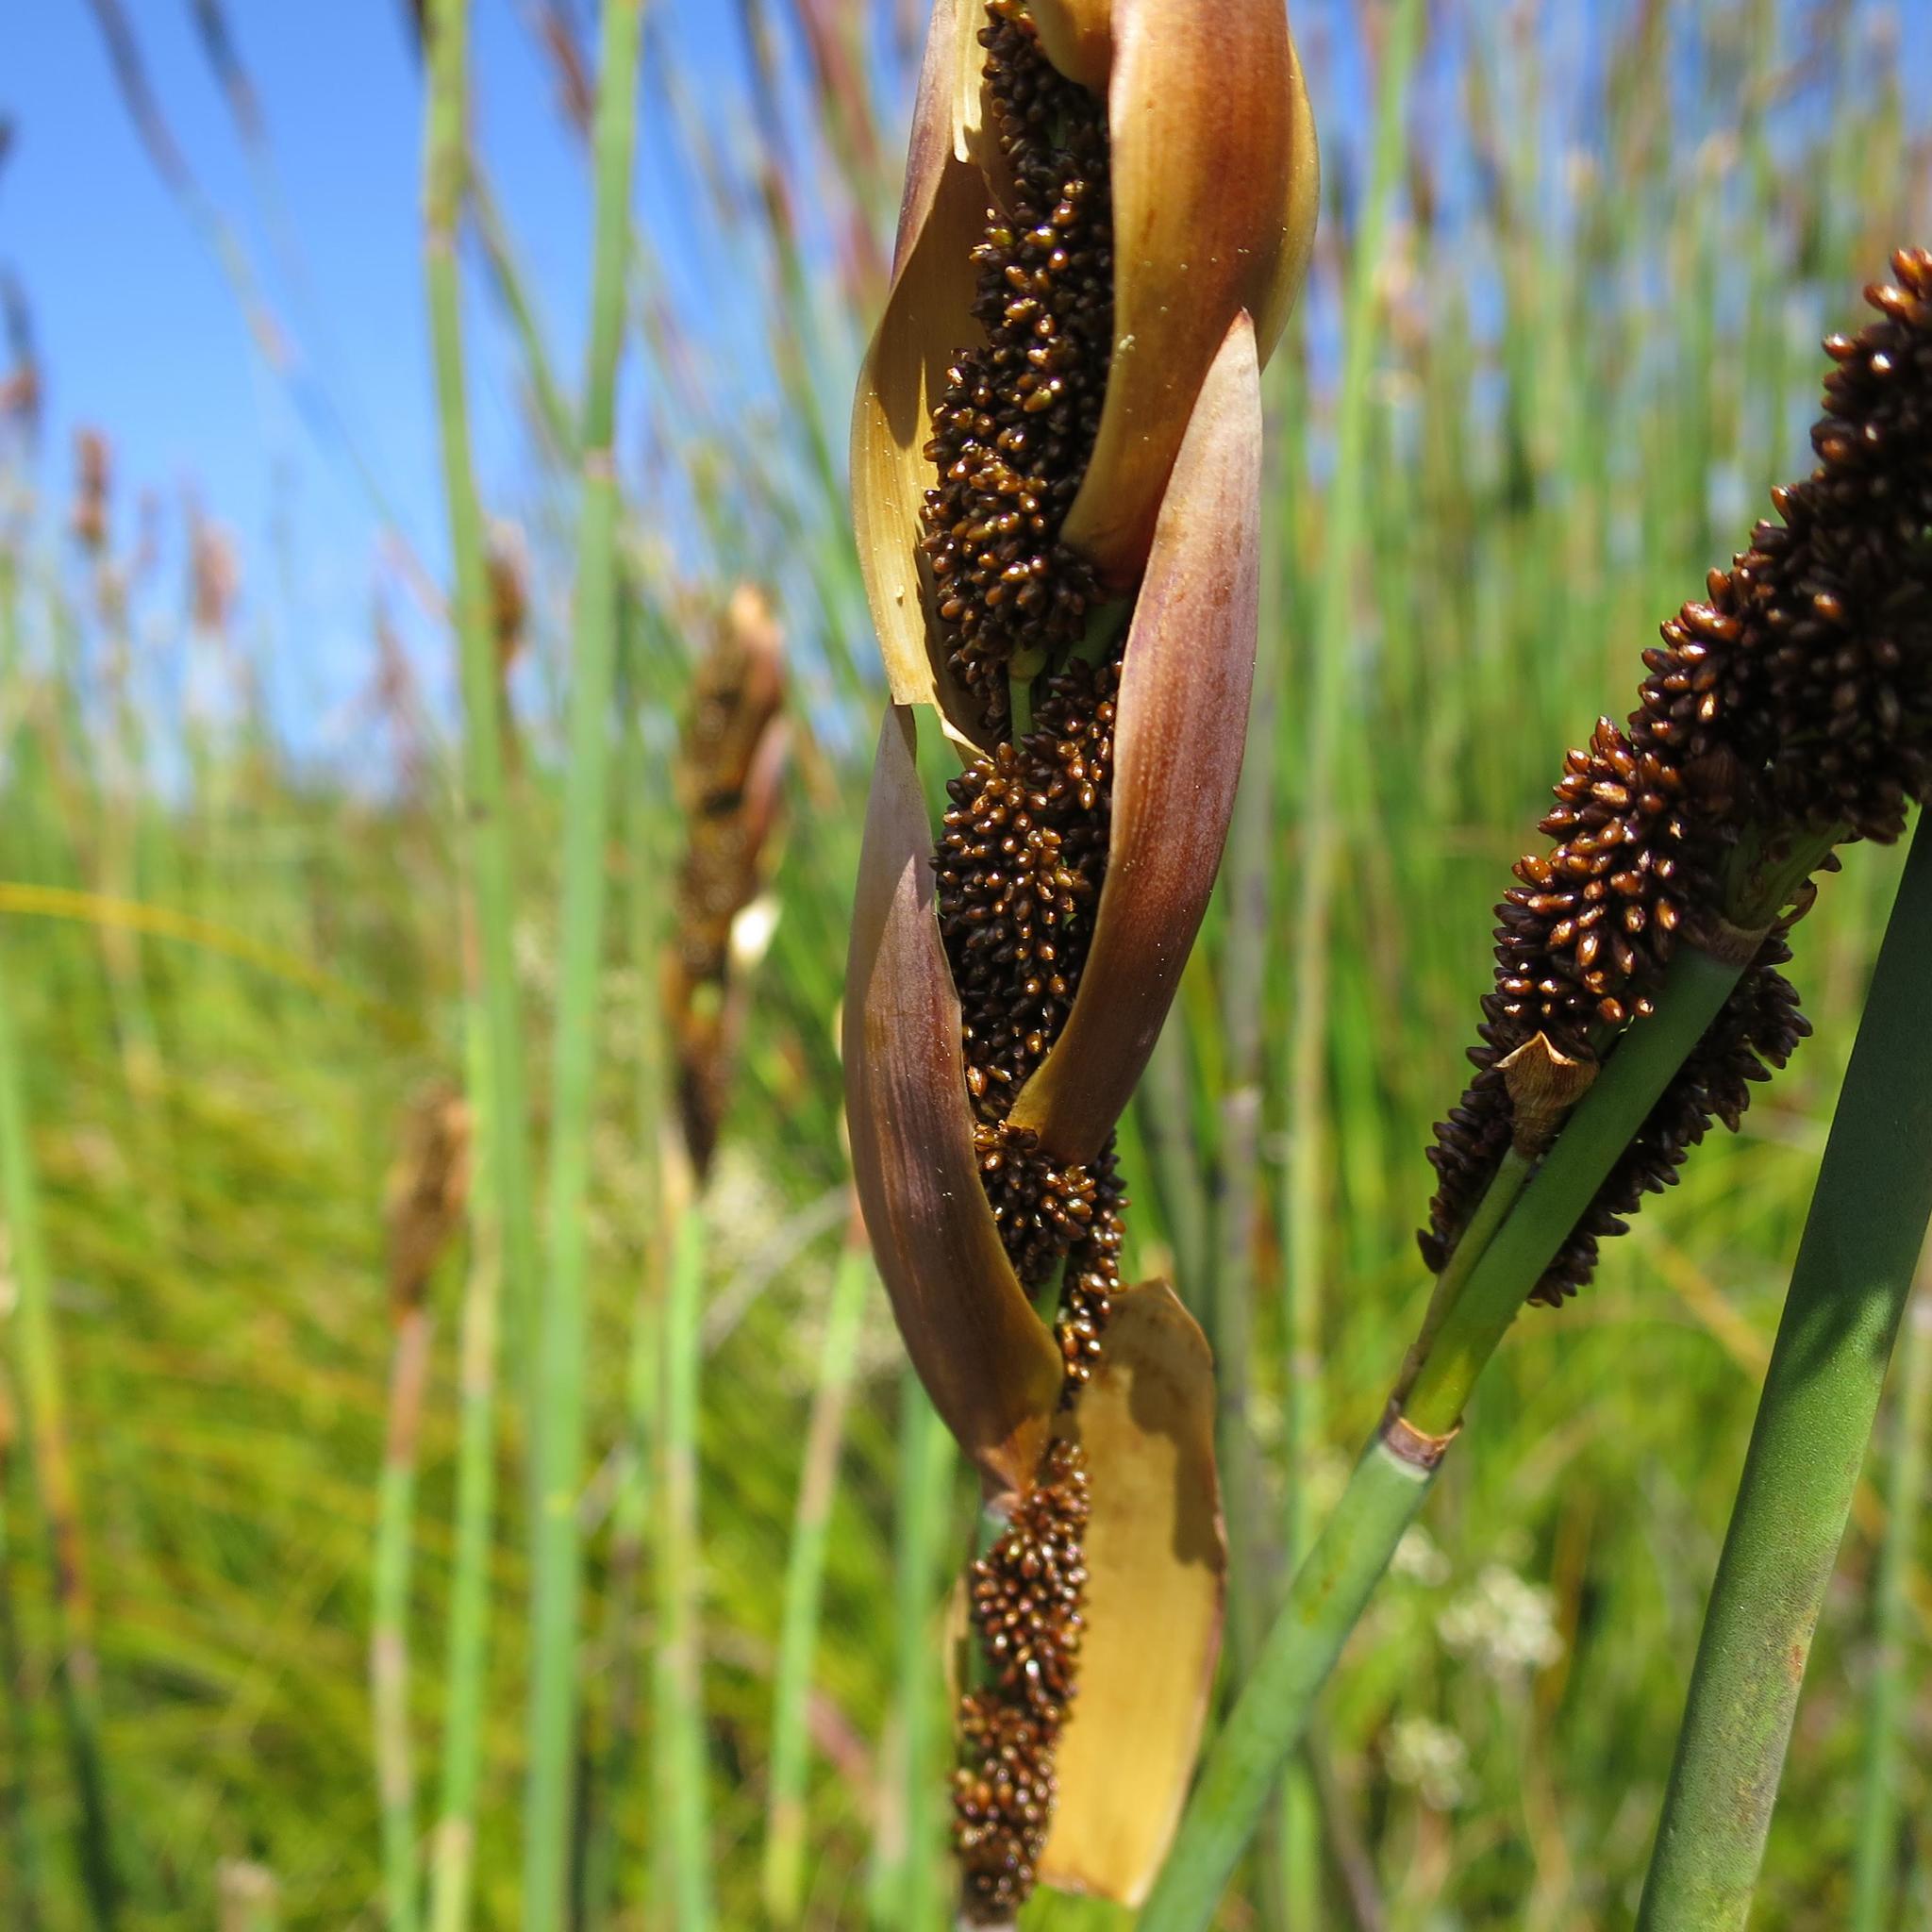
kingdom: Plantae
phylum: Tracheophyta
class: Liliopsida
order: Poales
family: Restionaceae
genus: Elegia
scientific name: Elegia thyrsoidea
